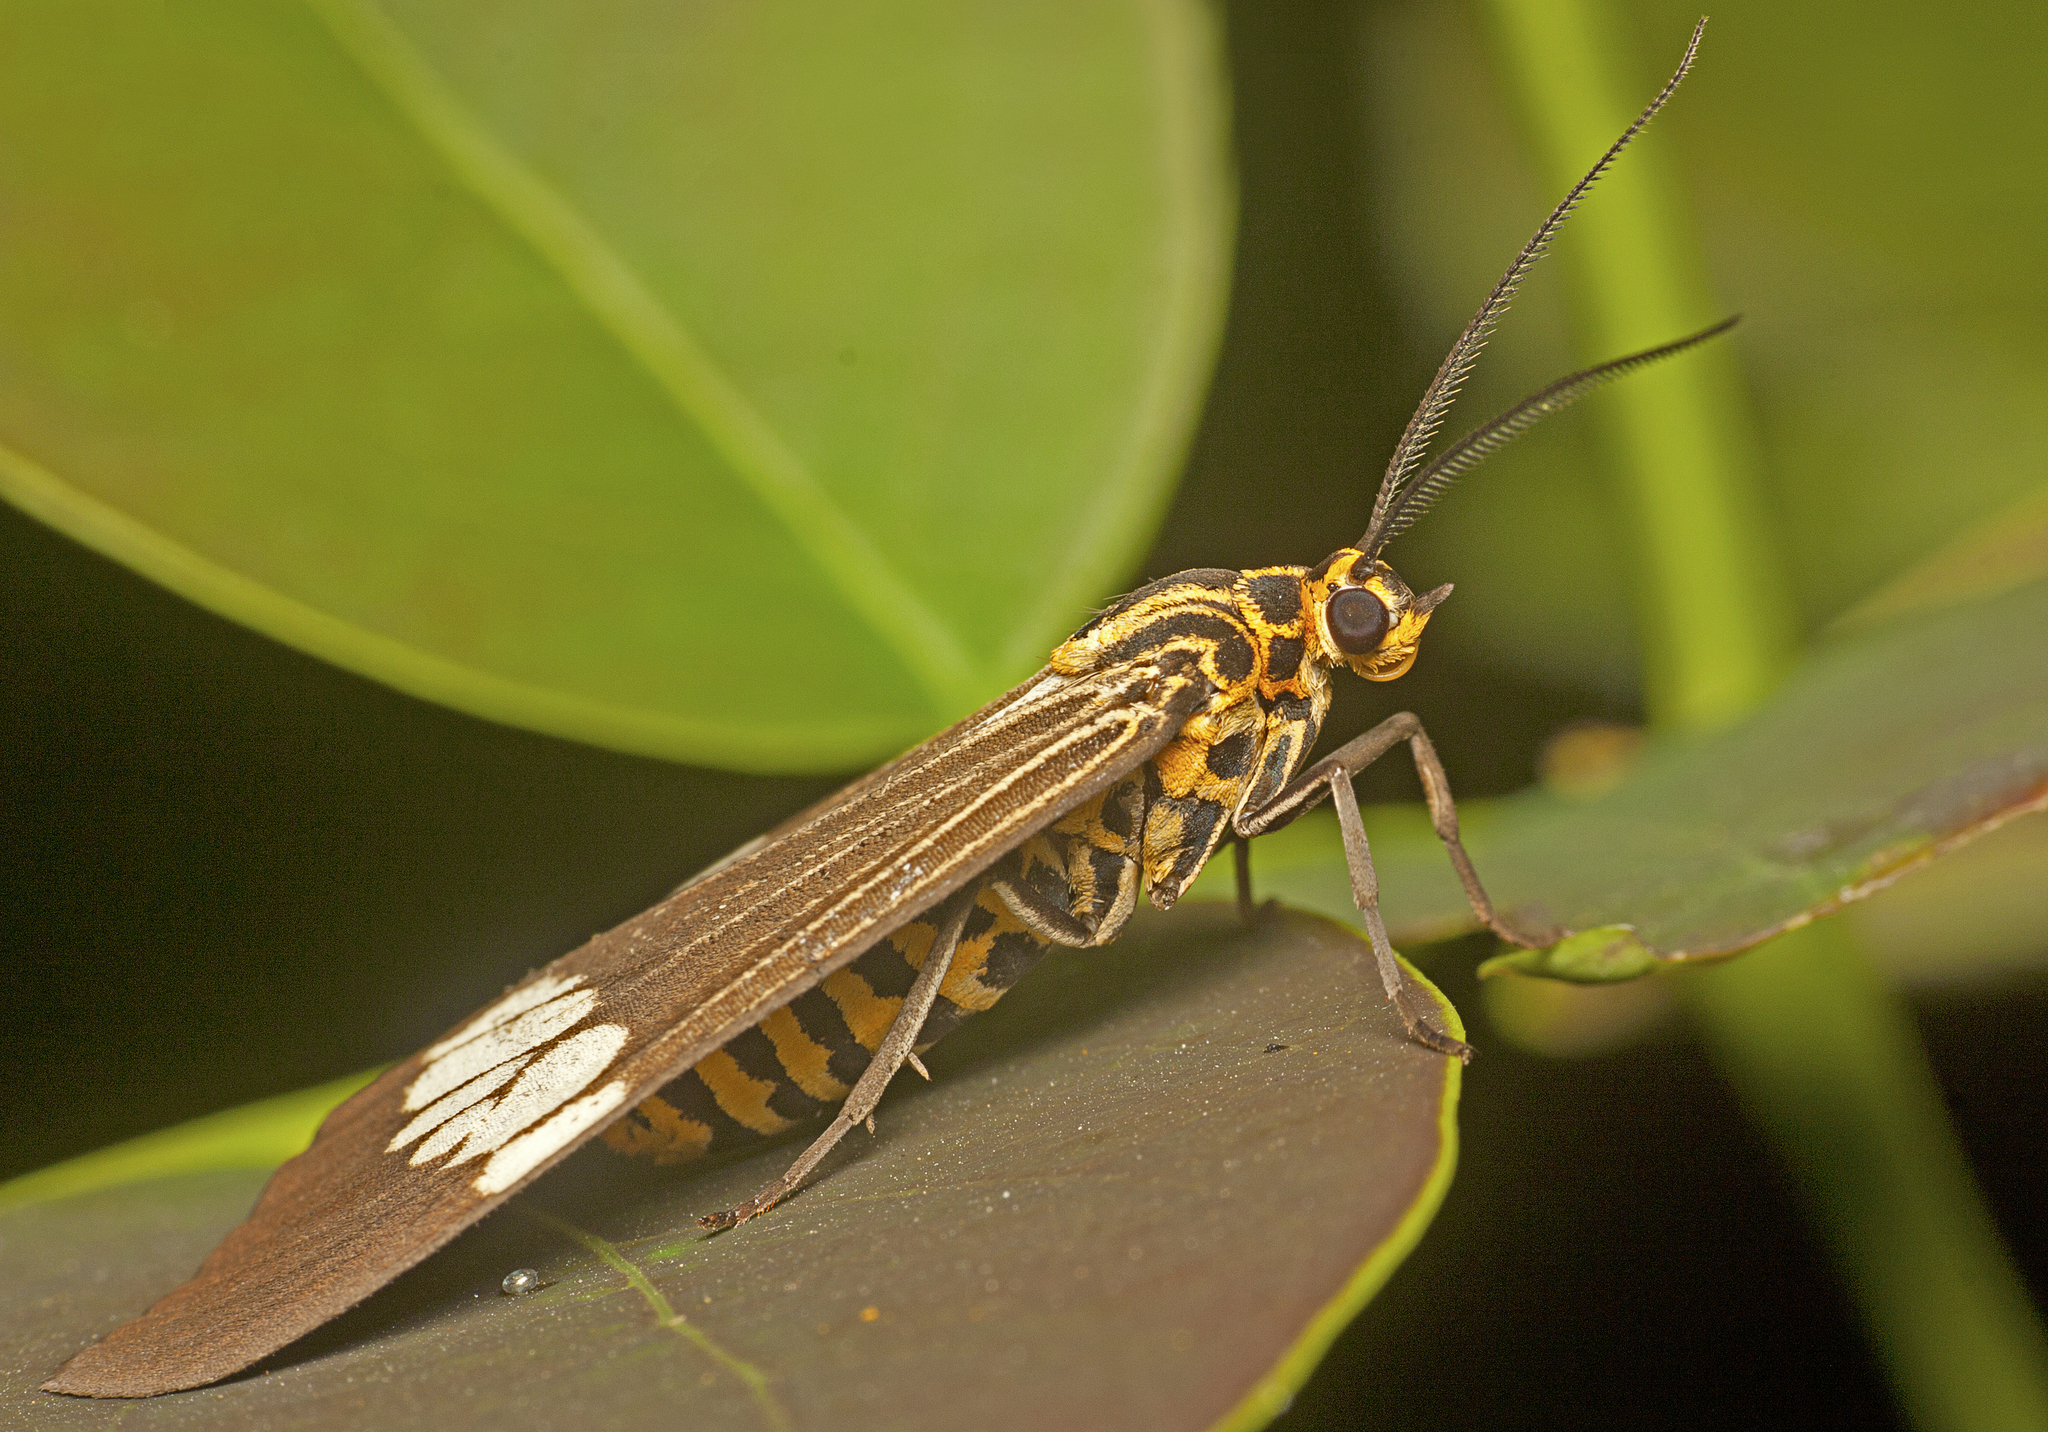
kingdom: Animalia
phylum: Arthropoda
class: Insecta
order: Lepidoptera
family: Erebidae
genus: Nyctemera
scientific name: Nyctemera baulus
